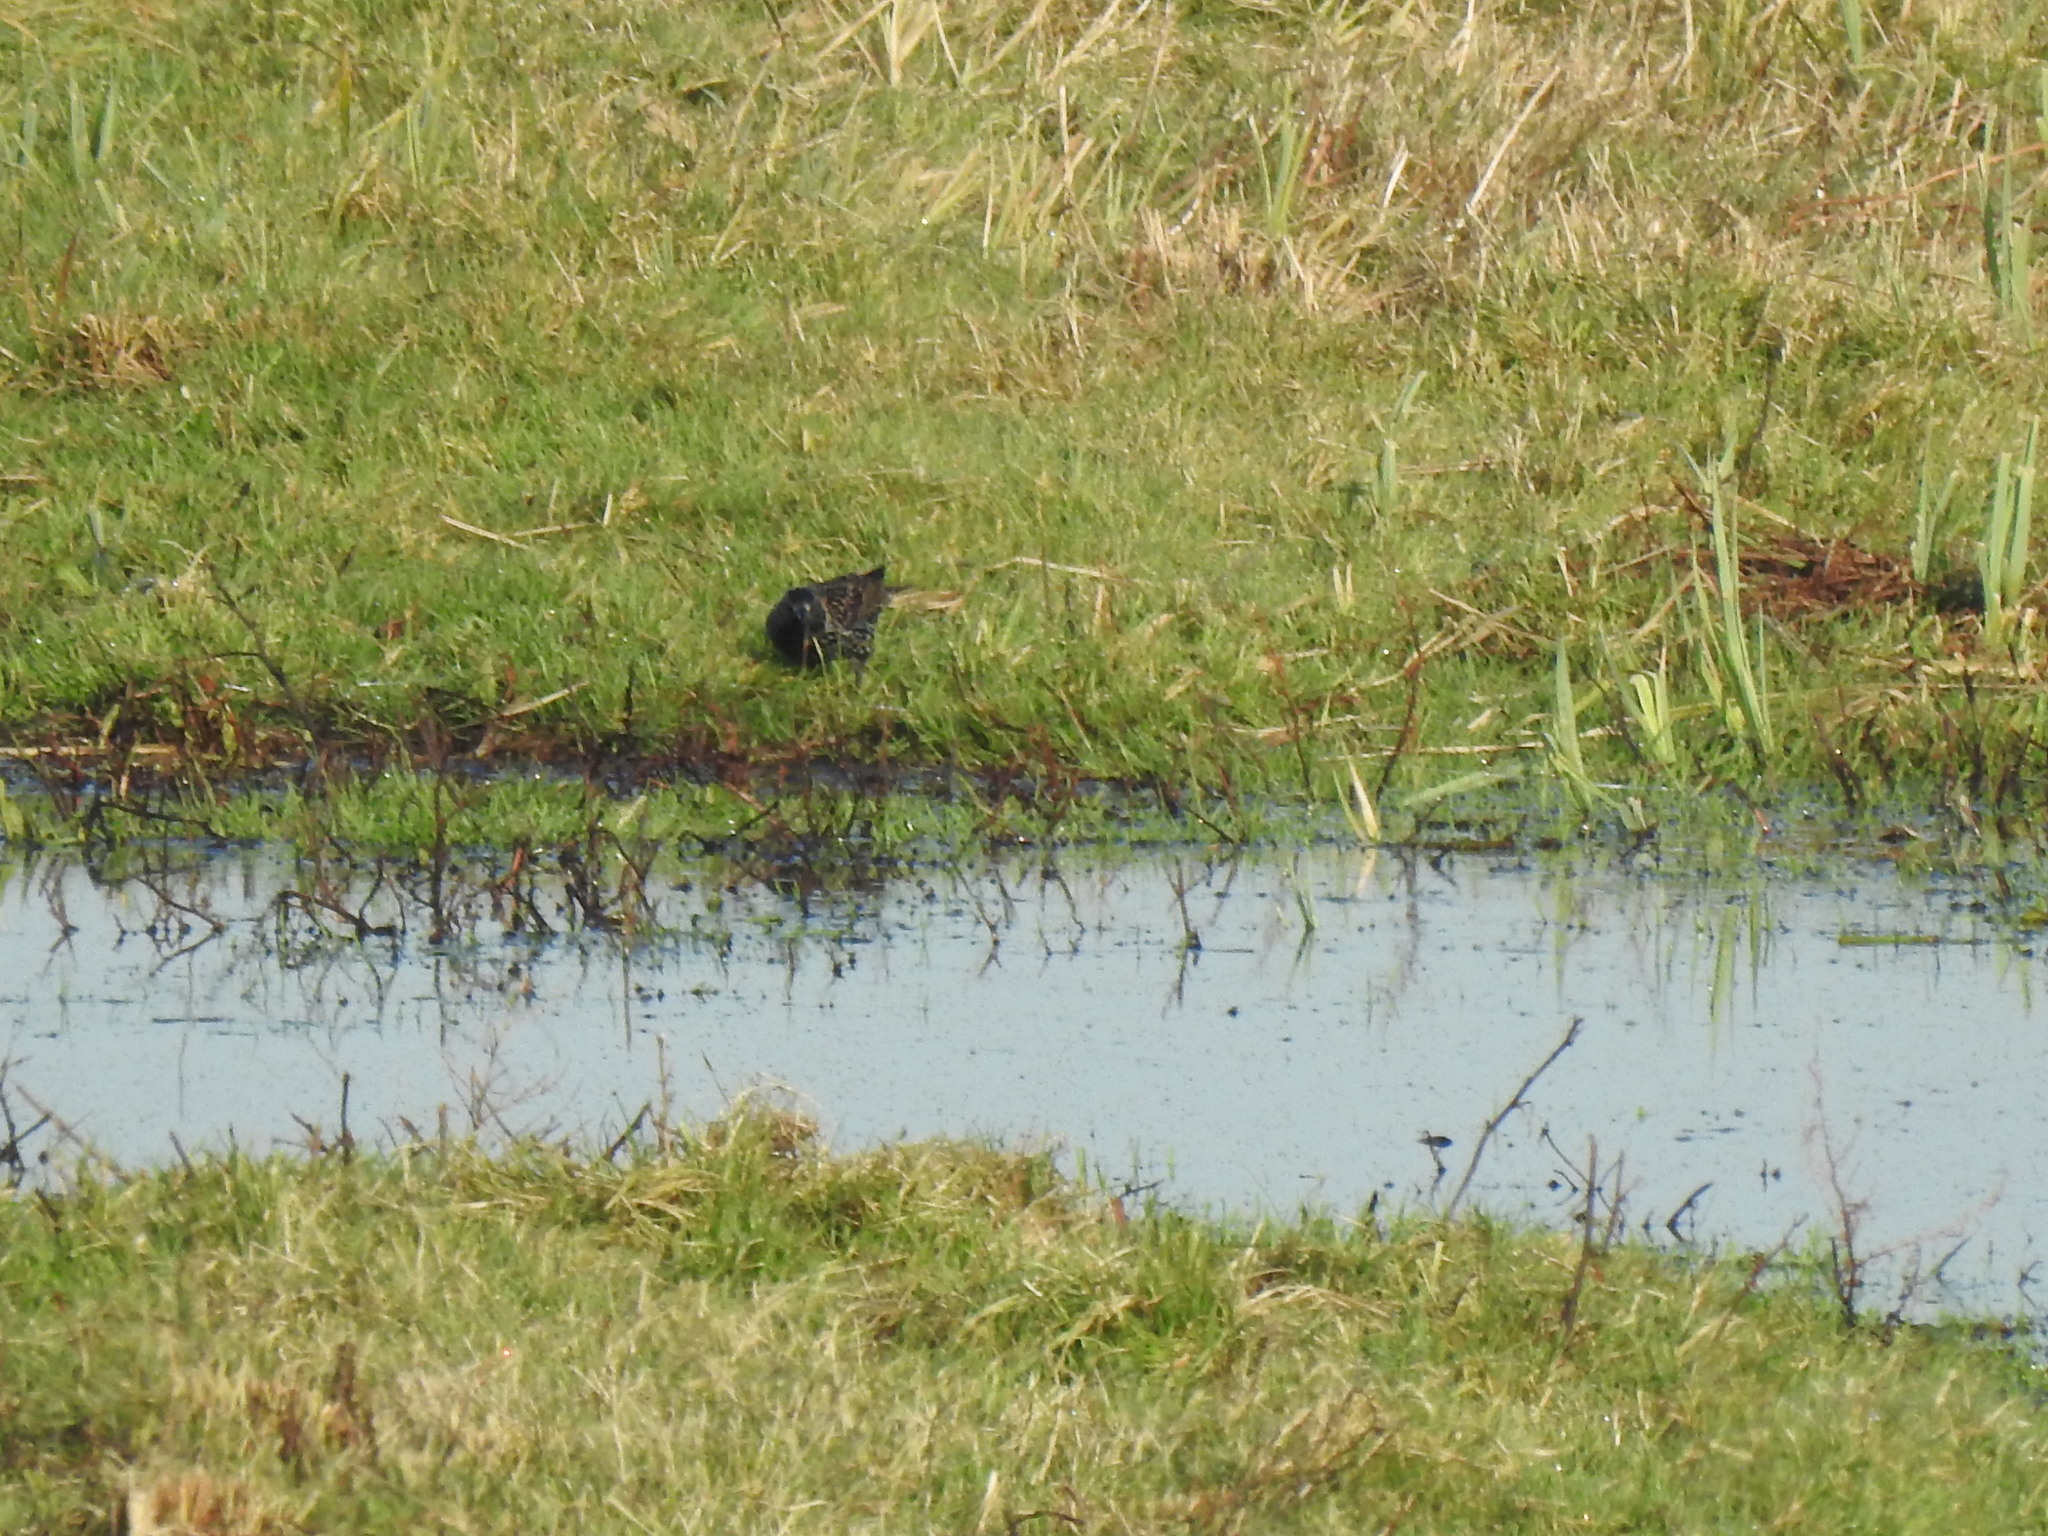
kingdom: Animalia
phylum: Chordata
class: Aves
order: Passeriformes
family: Sturnidae
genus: Sturnus
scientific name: Sturnus vulgaris
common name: Common starling
